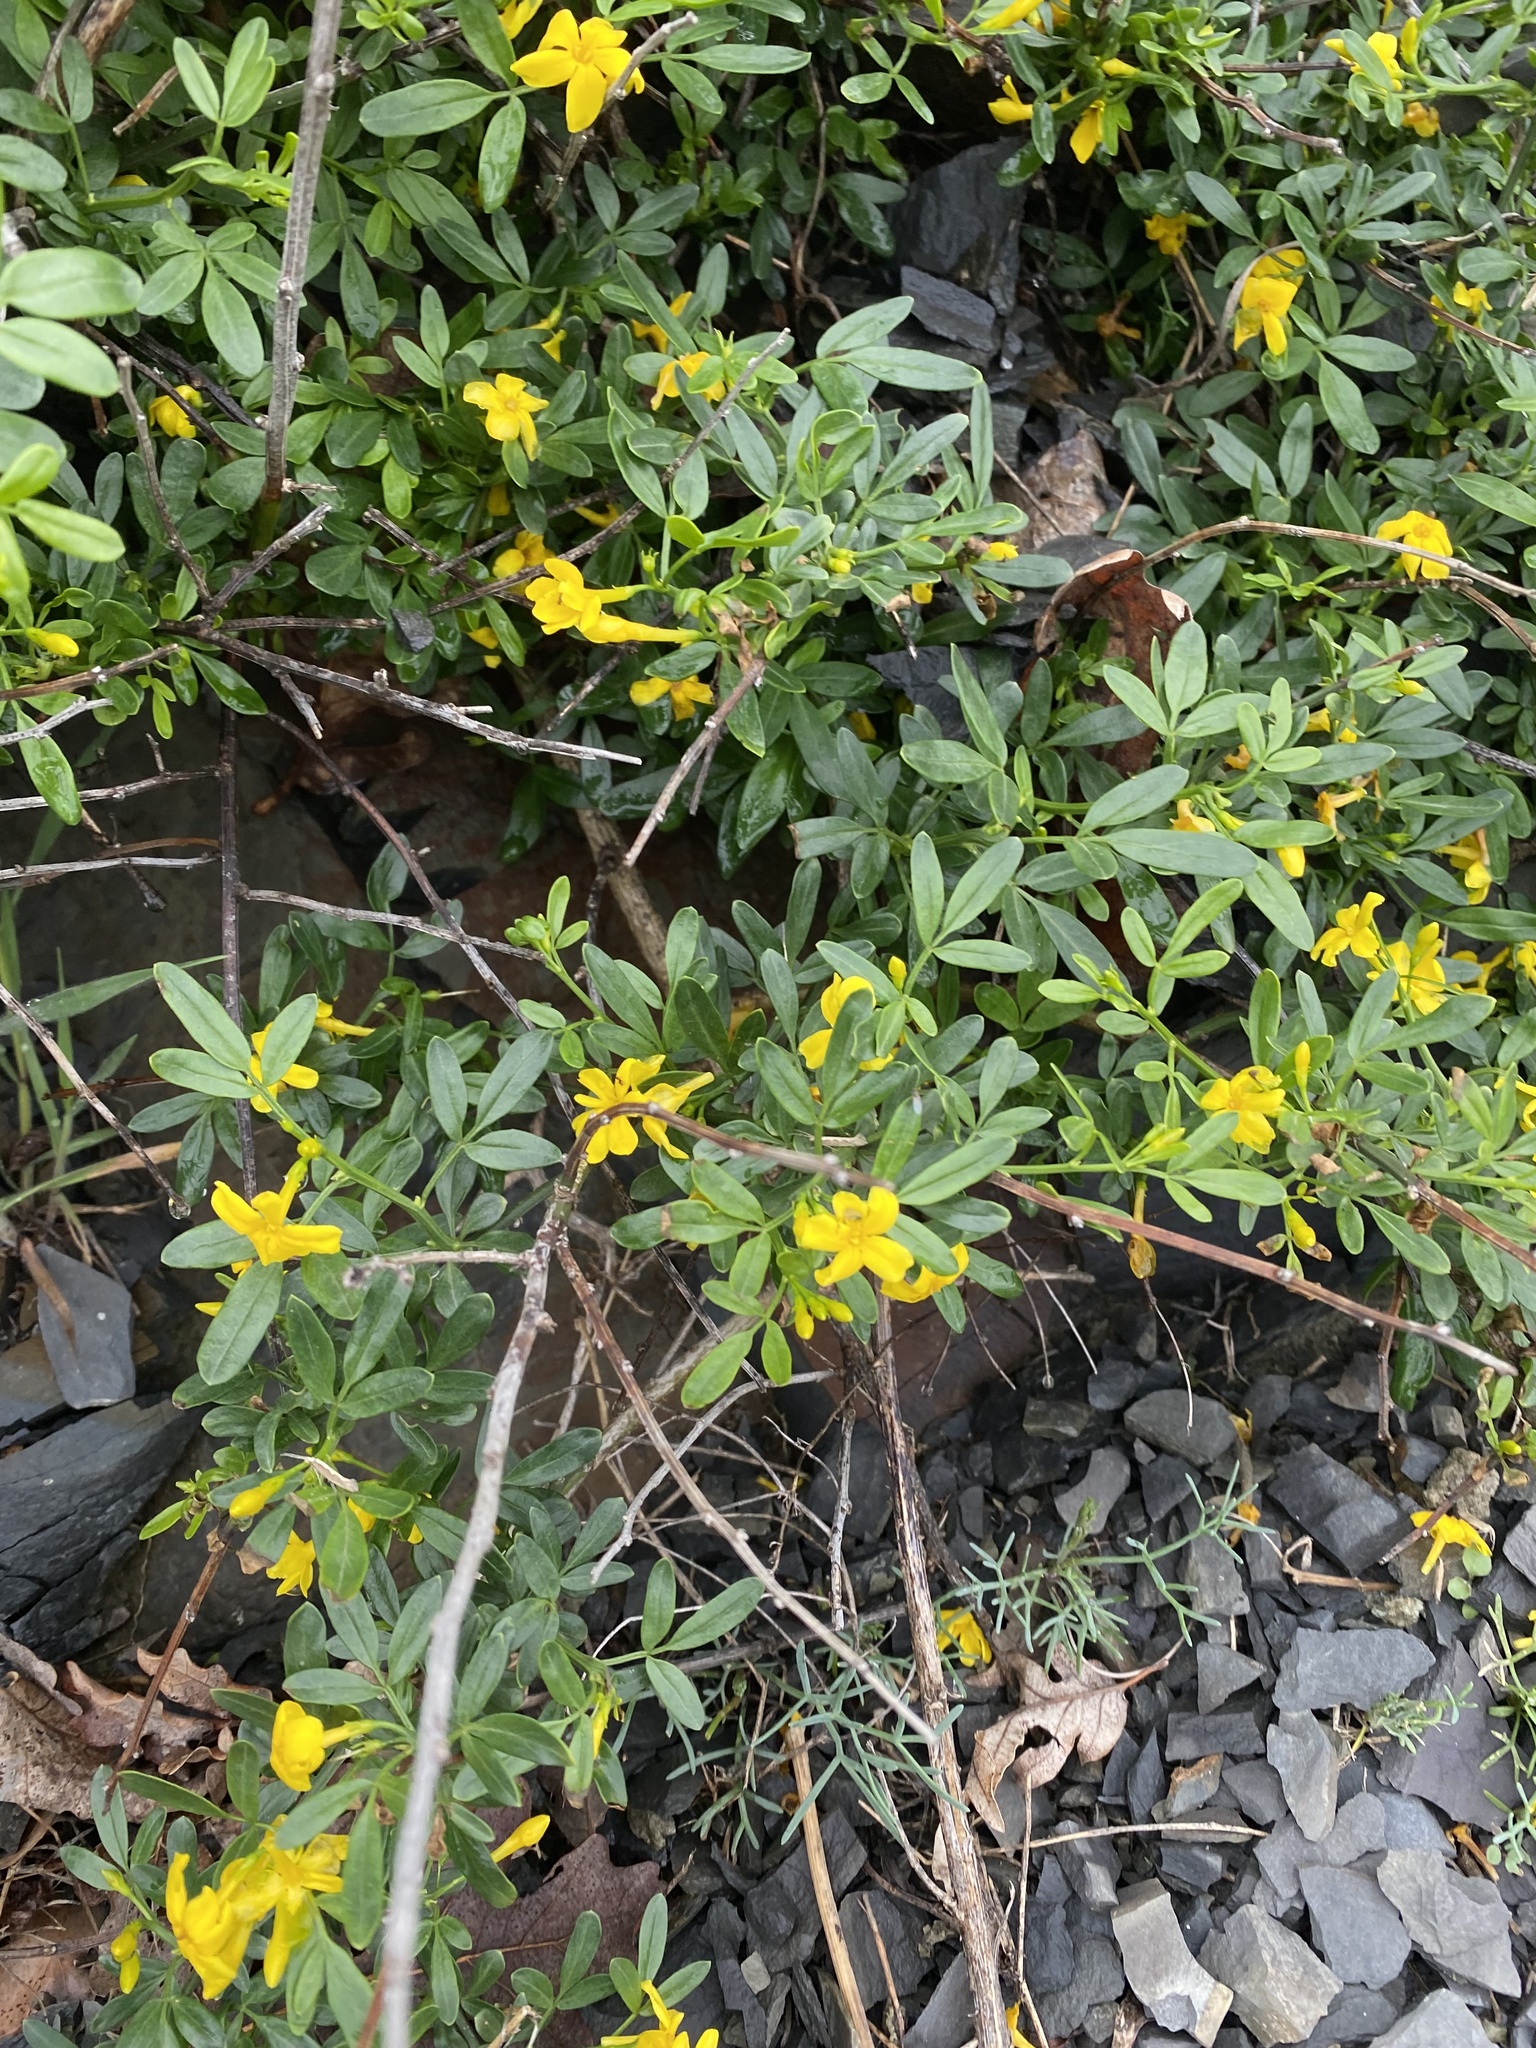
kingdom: Plantae
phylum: Tracheophyta
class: Magnoliopsida
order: Lamiales
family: Oleaceae
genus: Chrysojasminum
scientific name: Chrysojasminum fruticans
